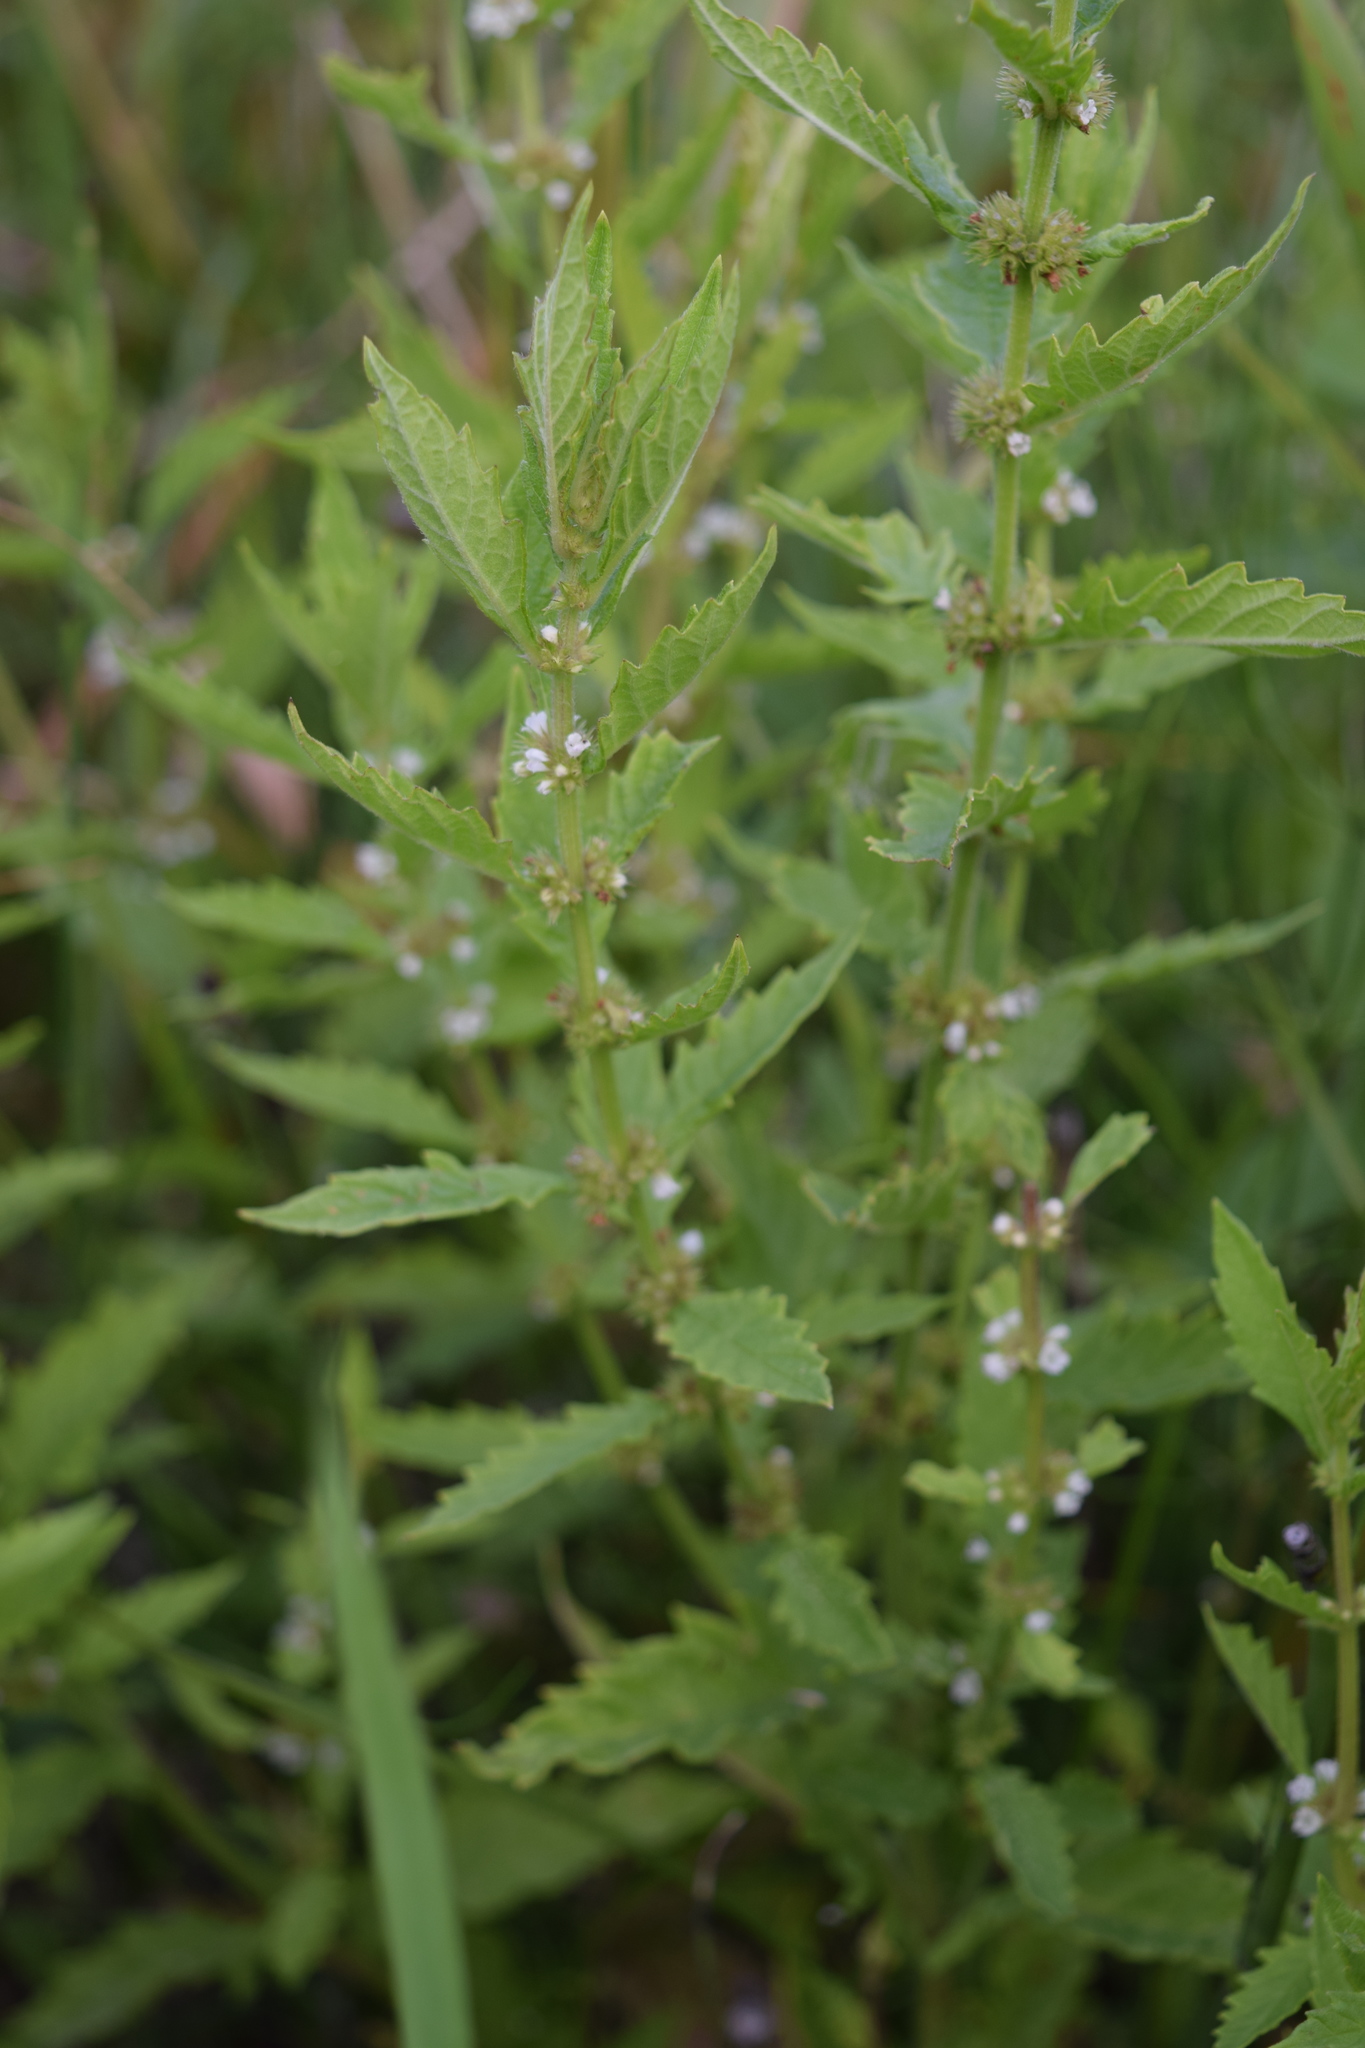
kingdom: Plantae
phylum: Tracheophyta
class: Magnoliopsida
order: Lamiales
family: Lamiaceae
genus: Lycopus
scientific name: Lycopus europaeus
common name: European bugleweed
